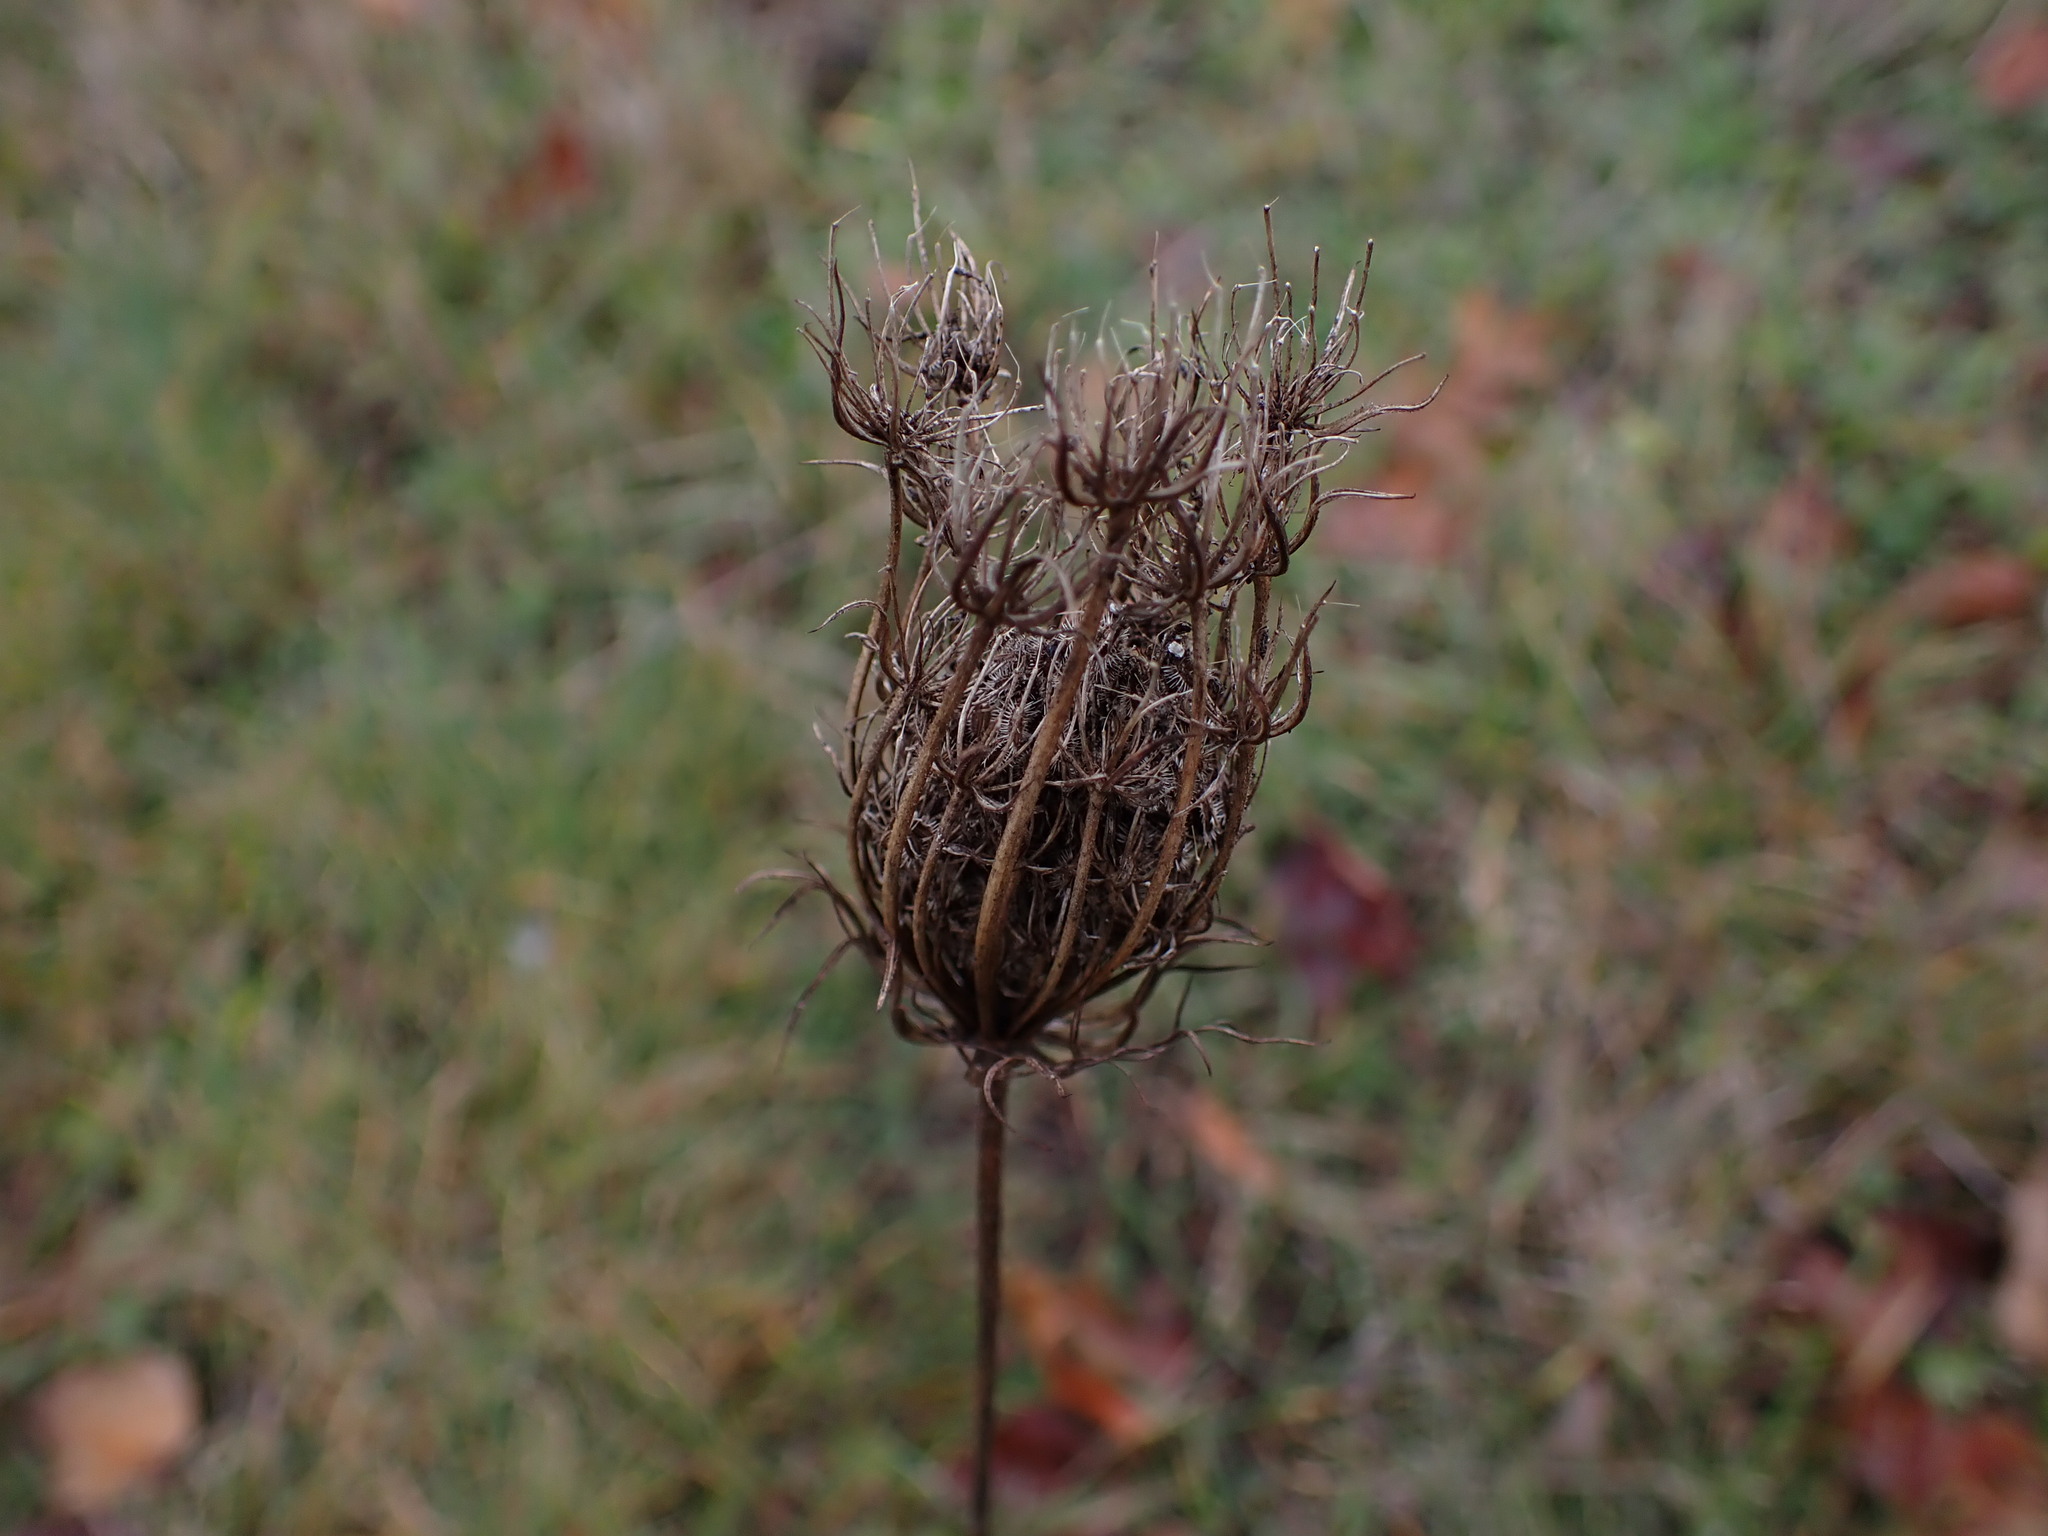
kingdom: Plantae
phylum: Tracheophyta
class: Magnoliopsida
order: Apiales
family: Apiaceae
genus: Daucus
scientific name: Daucus carota
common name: Wild carrot
